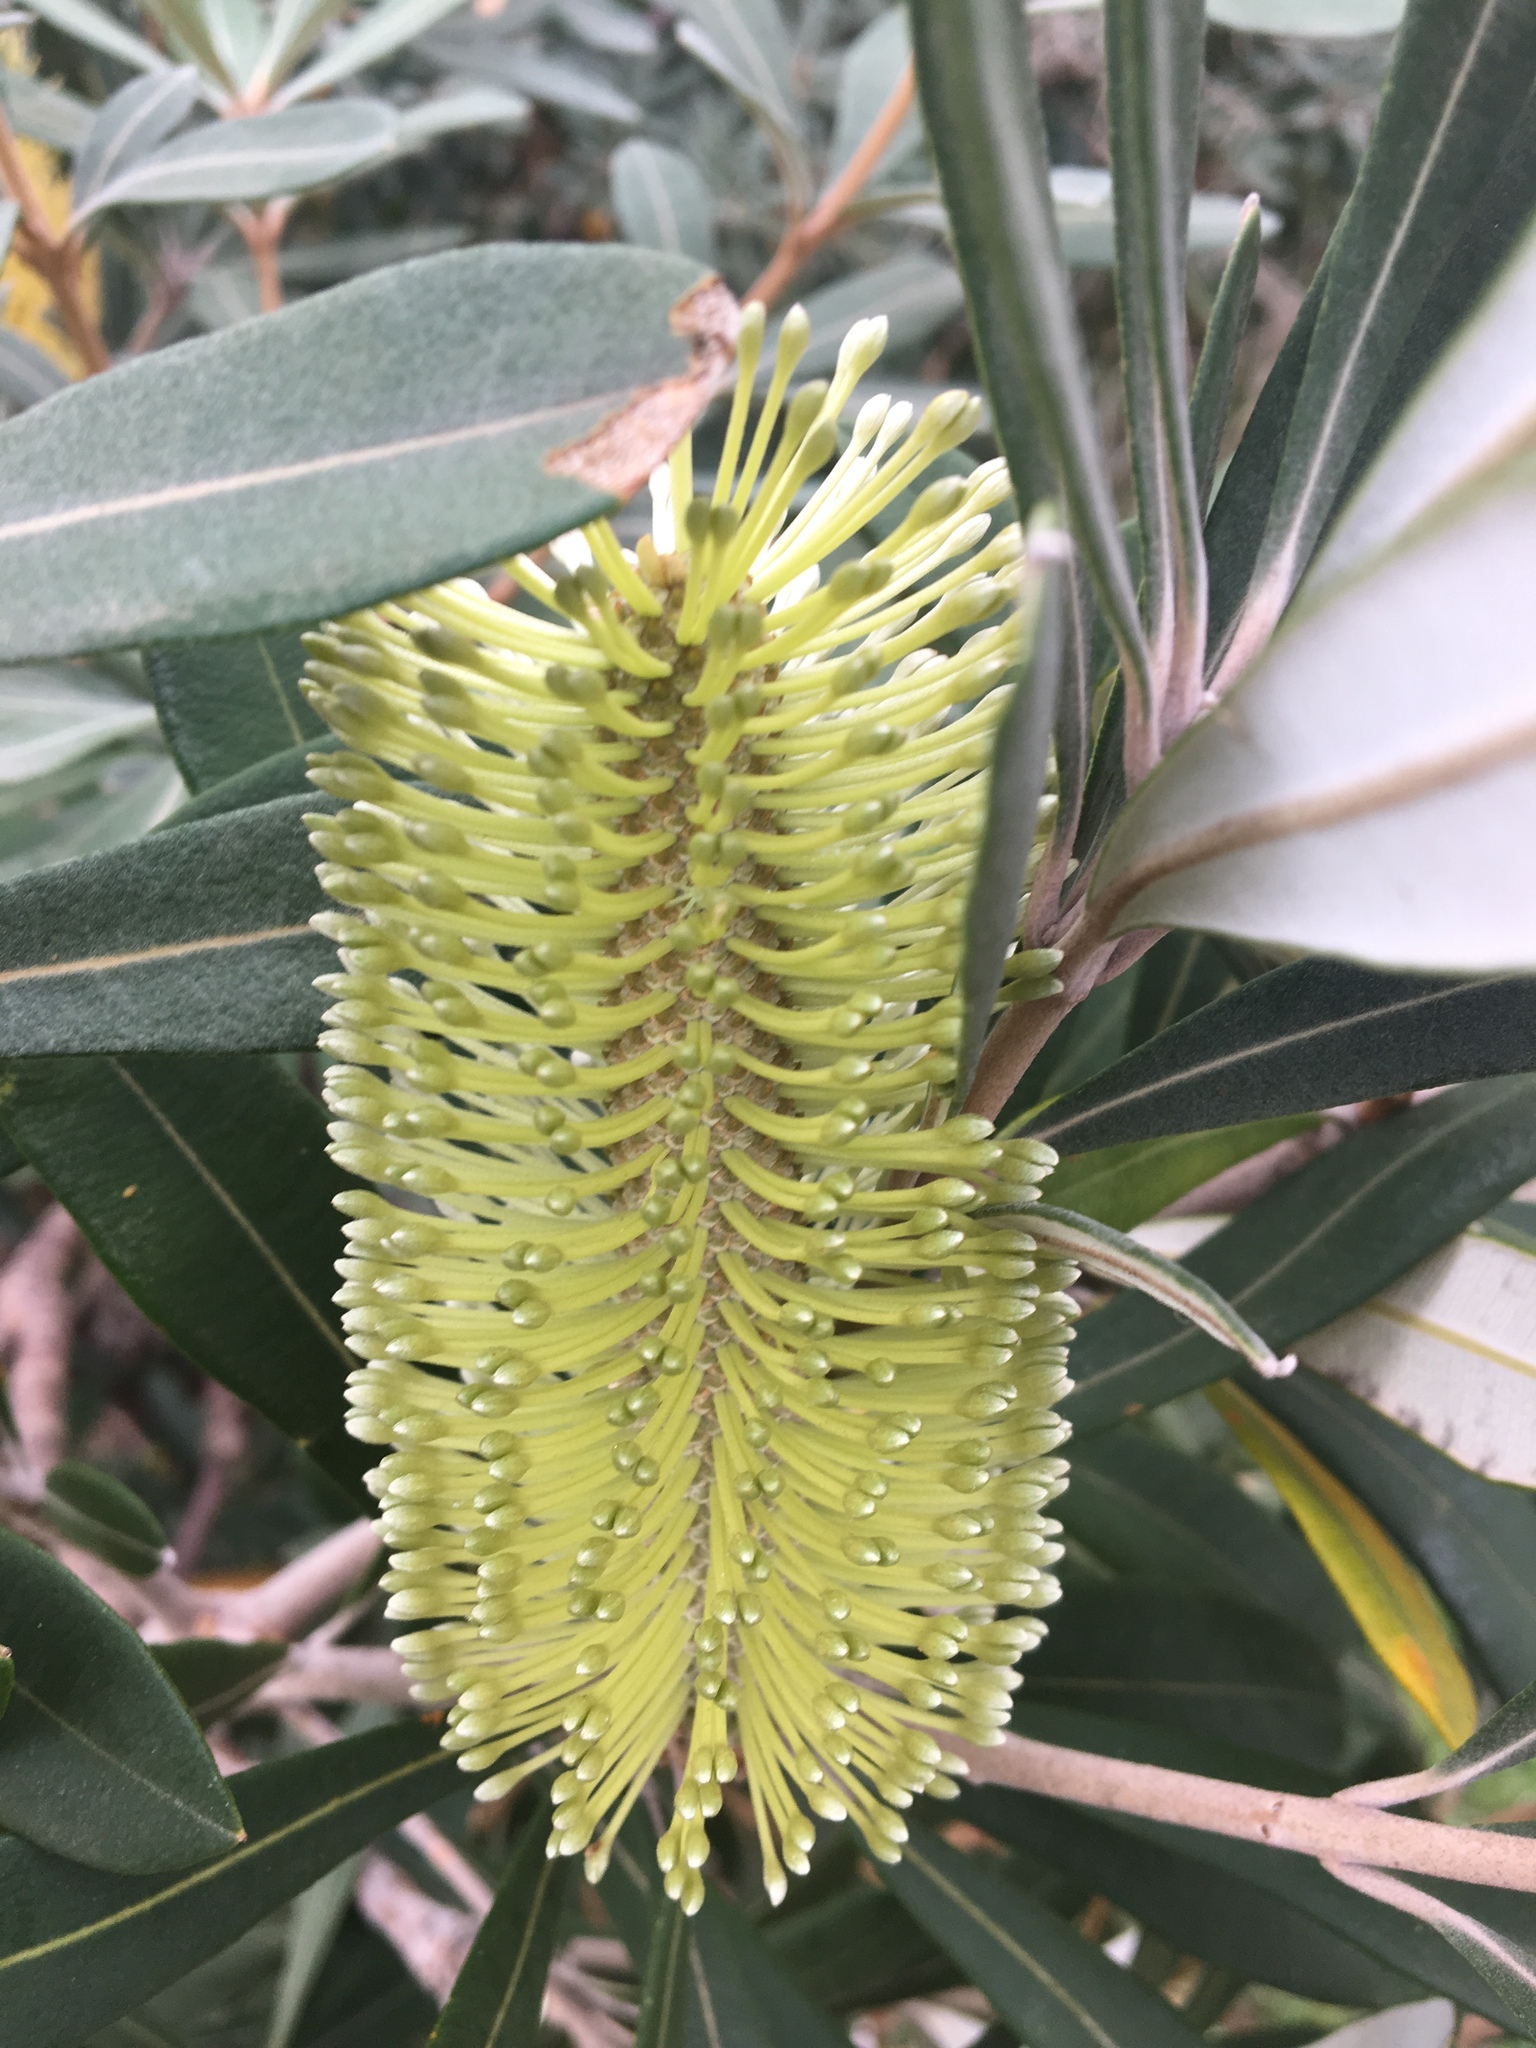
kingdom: Plantae
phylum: Tracheophyta
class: Magnoliopsida
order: Proteales
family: Proteaceae
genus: Banksia
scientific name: Banksia integrifolia
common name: White-honeysuckle
